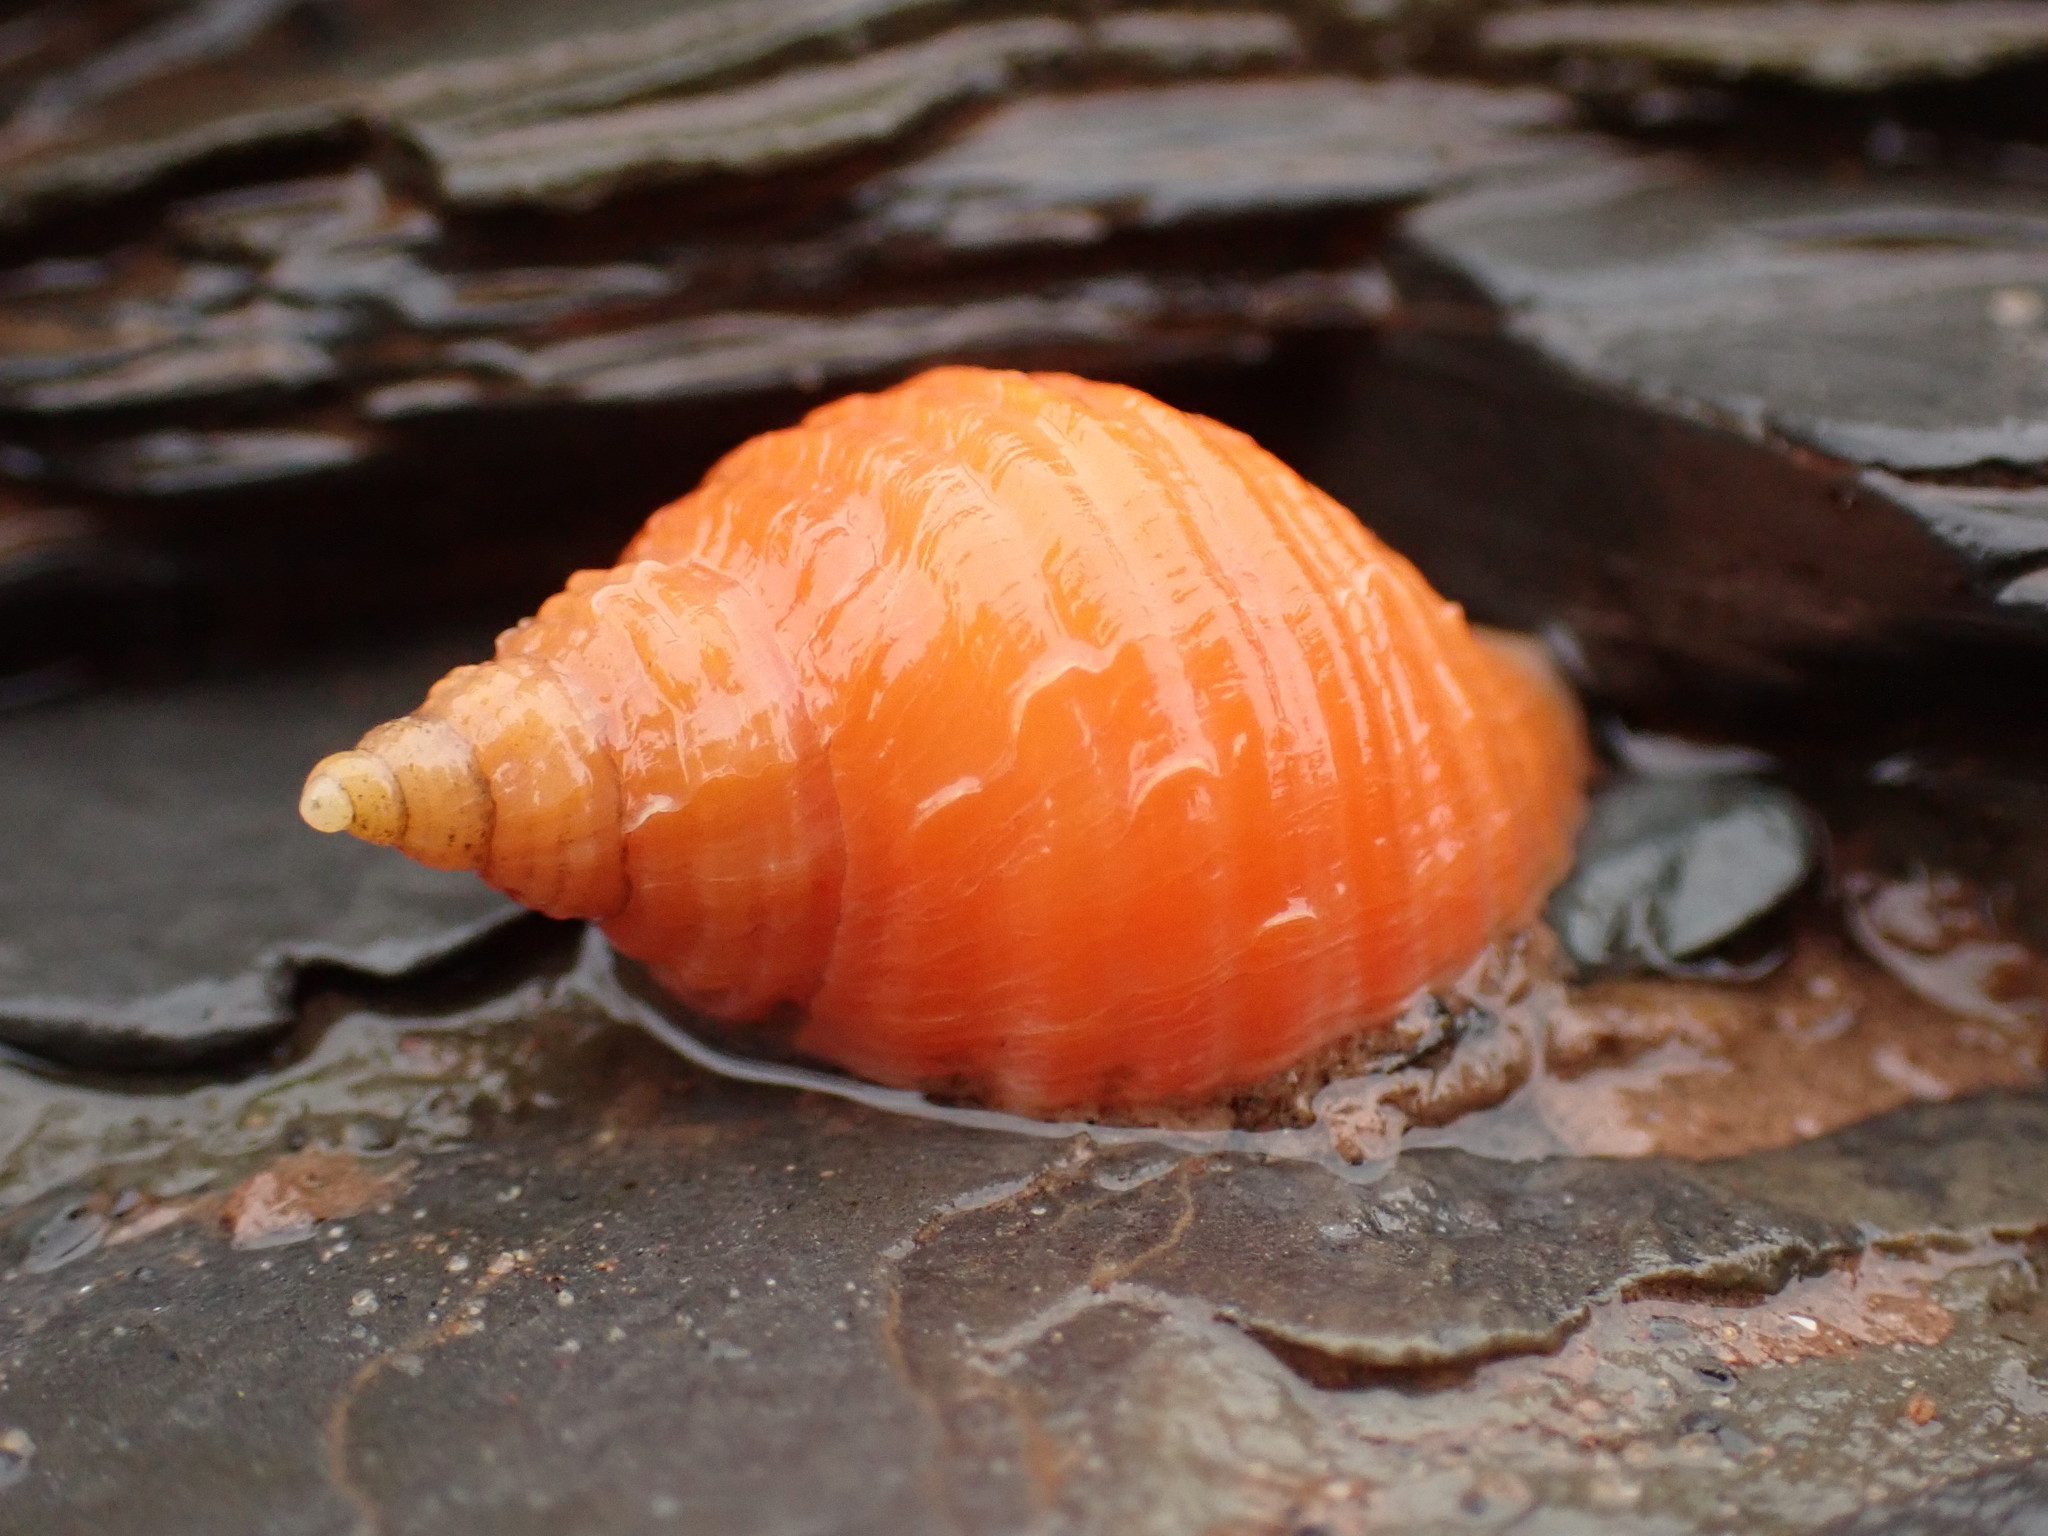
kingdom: Animalia
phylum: Mollusca
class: Gastropoda
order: Neogastropoda
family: Muricidae
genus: Nucella
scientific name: Nucella lapillus
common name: Dog whelk
